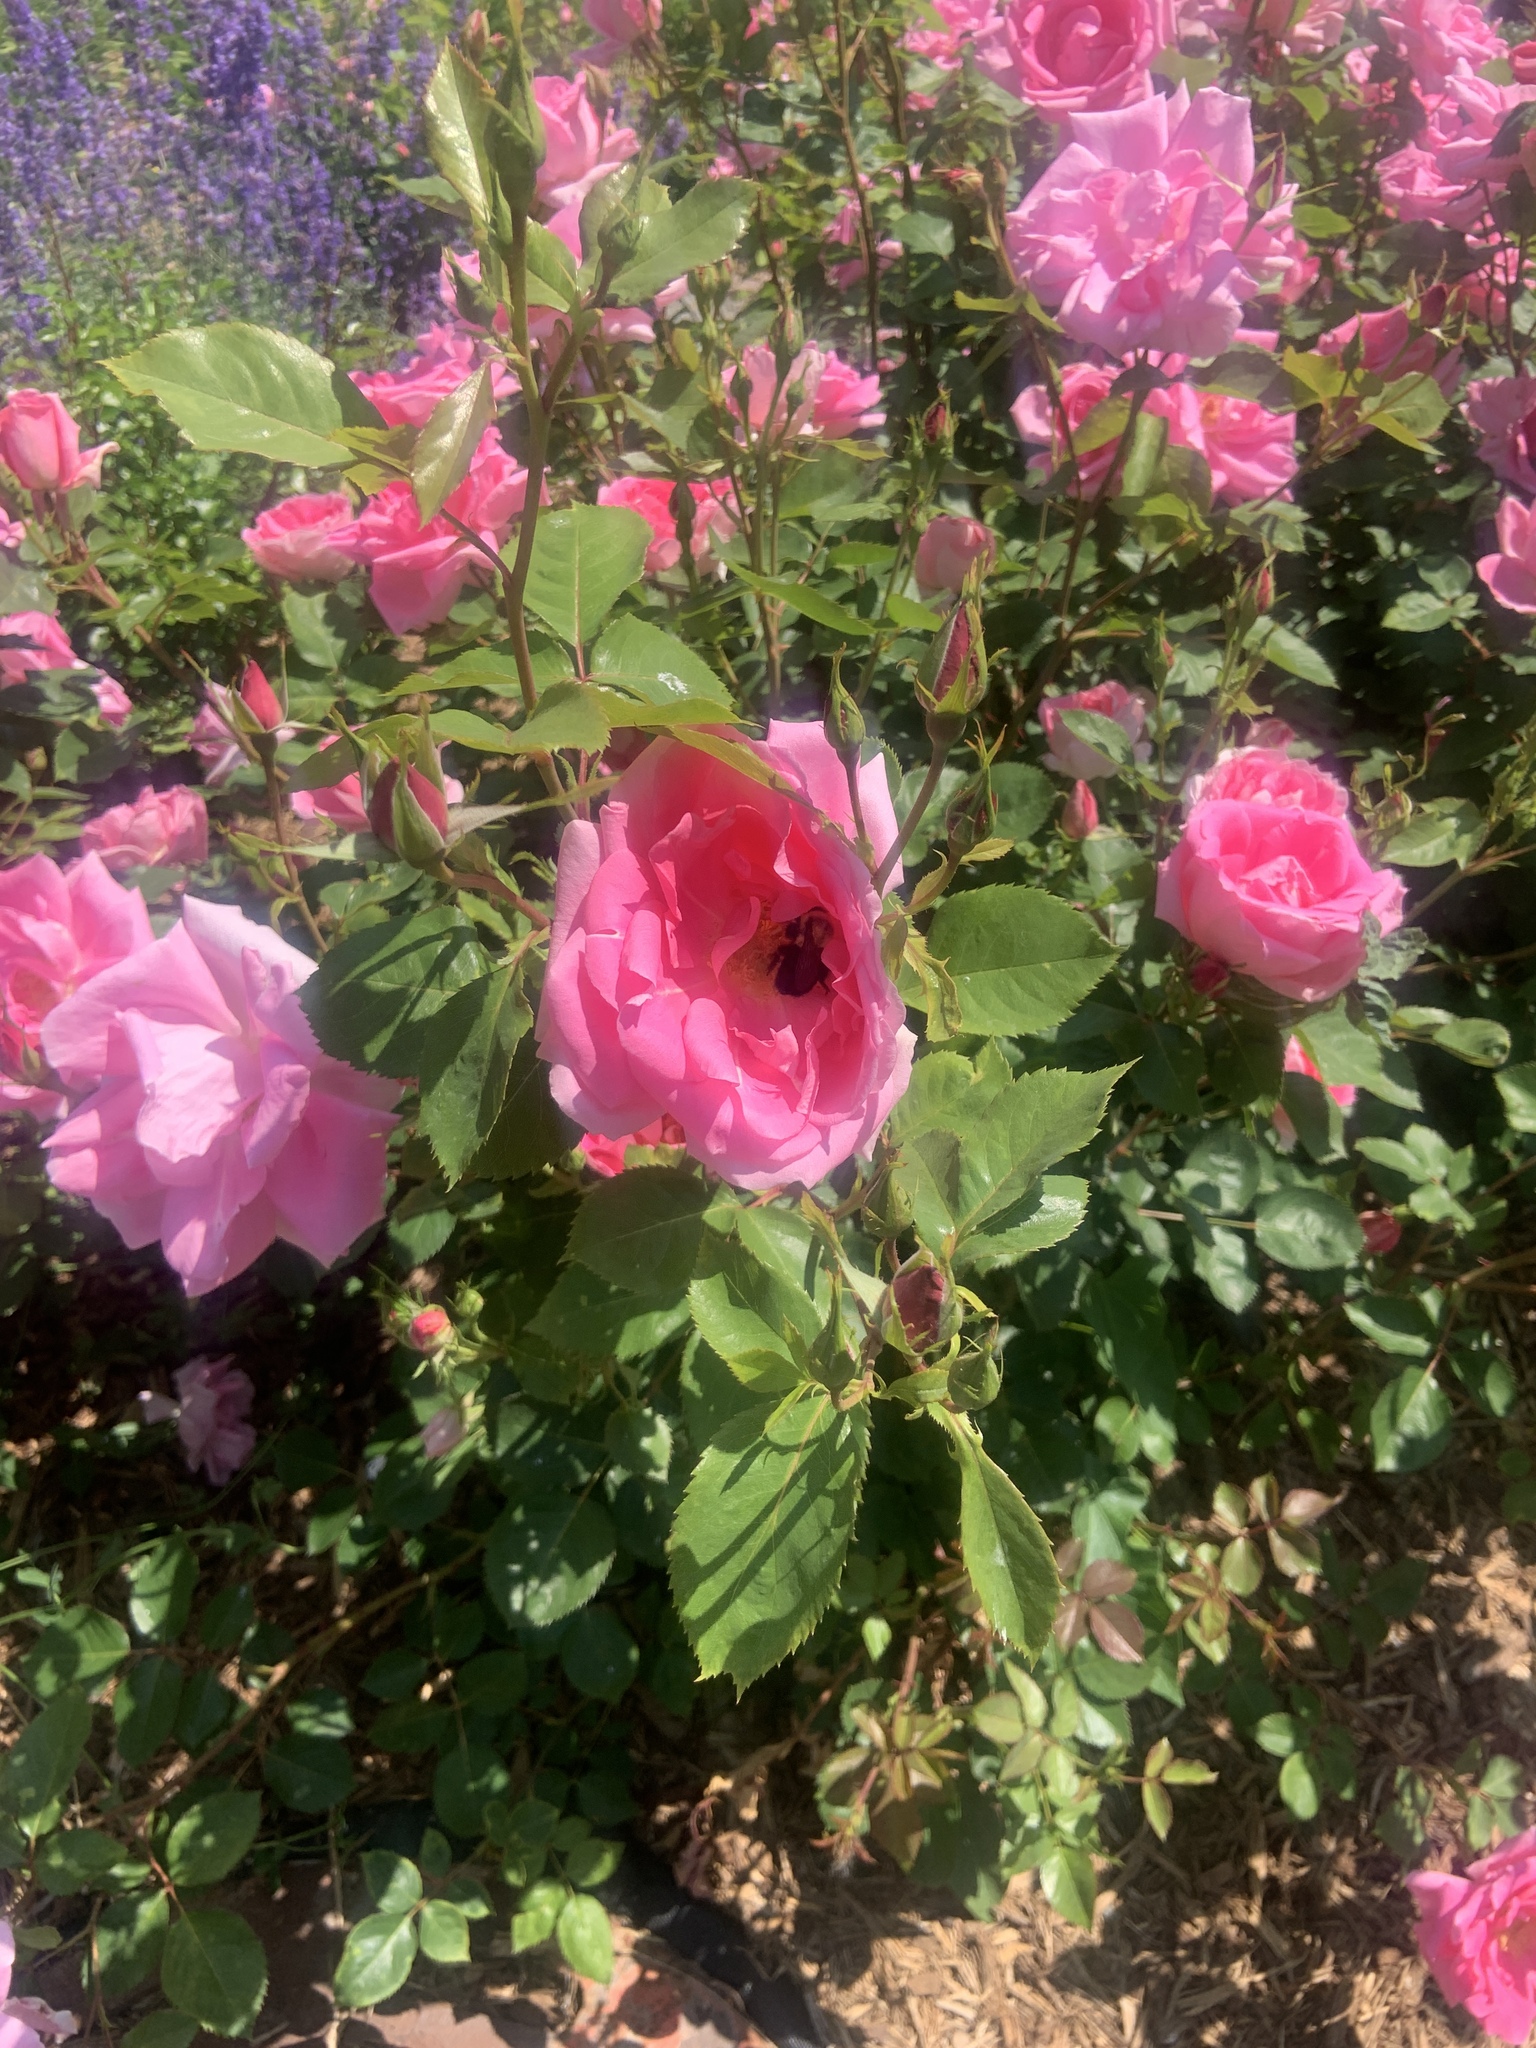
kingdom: Animalia
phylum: Arthropoda
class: Insecta
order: Hymenoptera
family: Apidae
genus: Bombus
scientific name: Bombus impatiens
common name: Common eastern bumble bee
